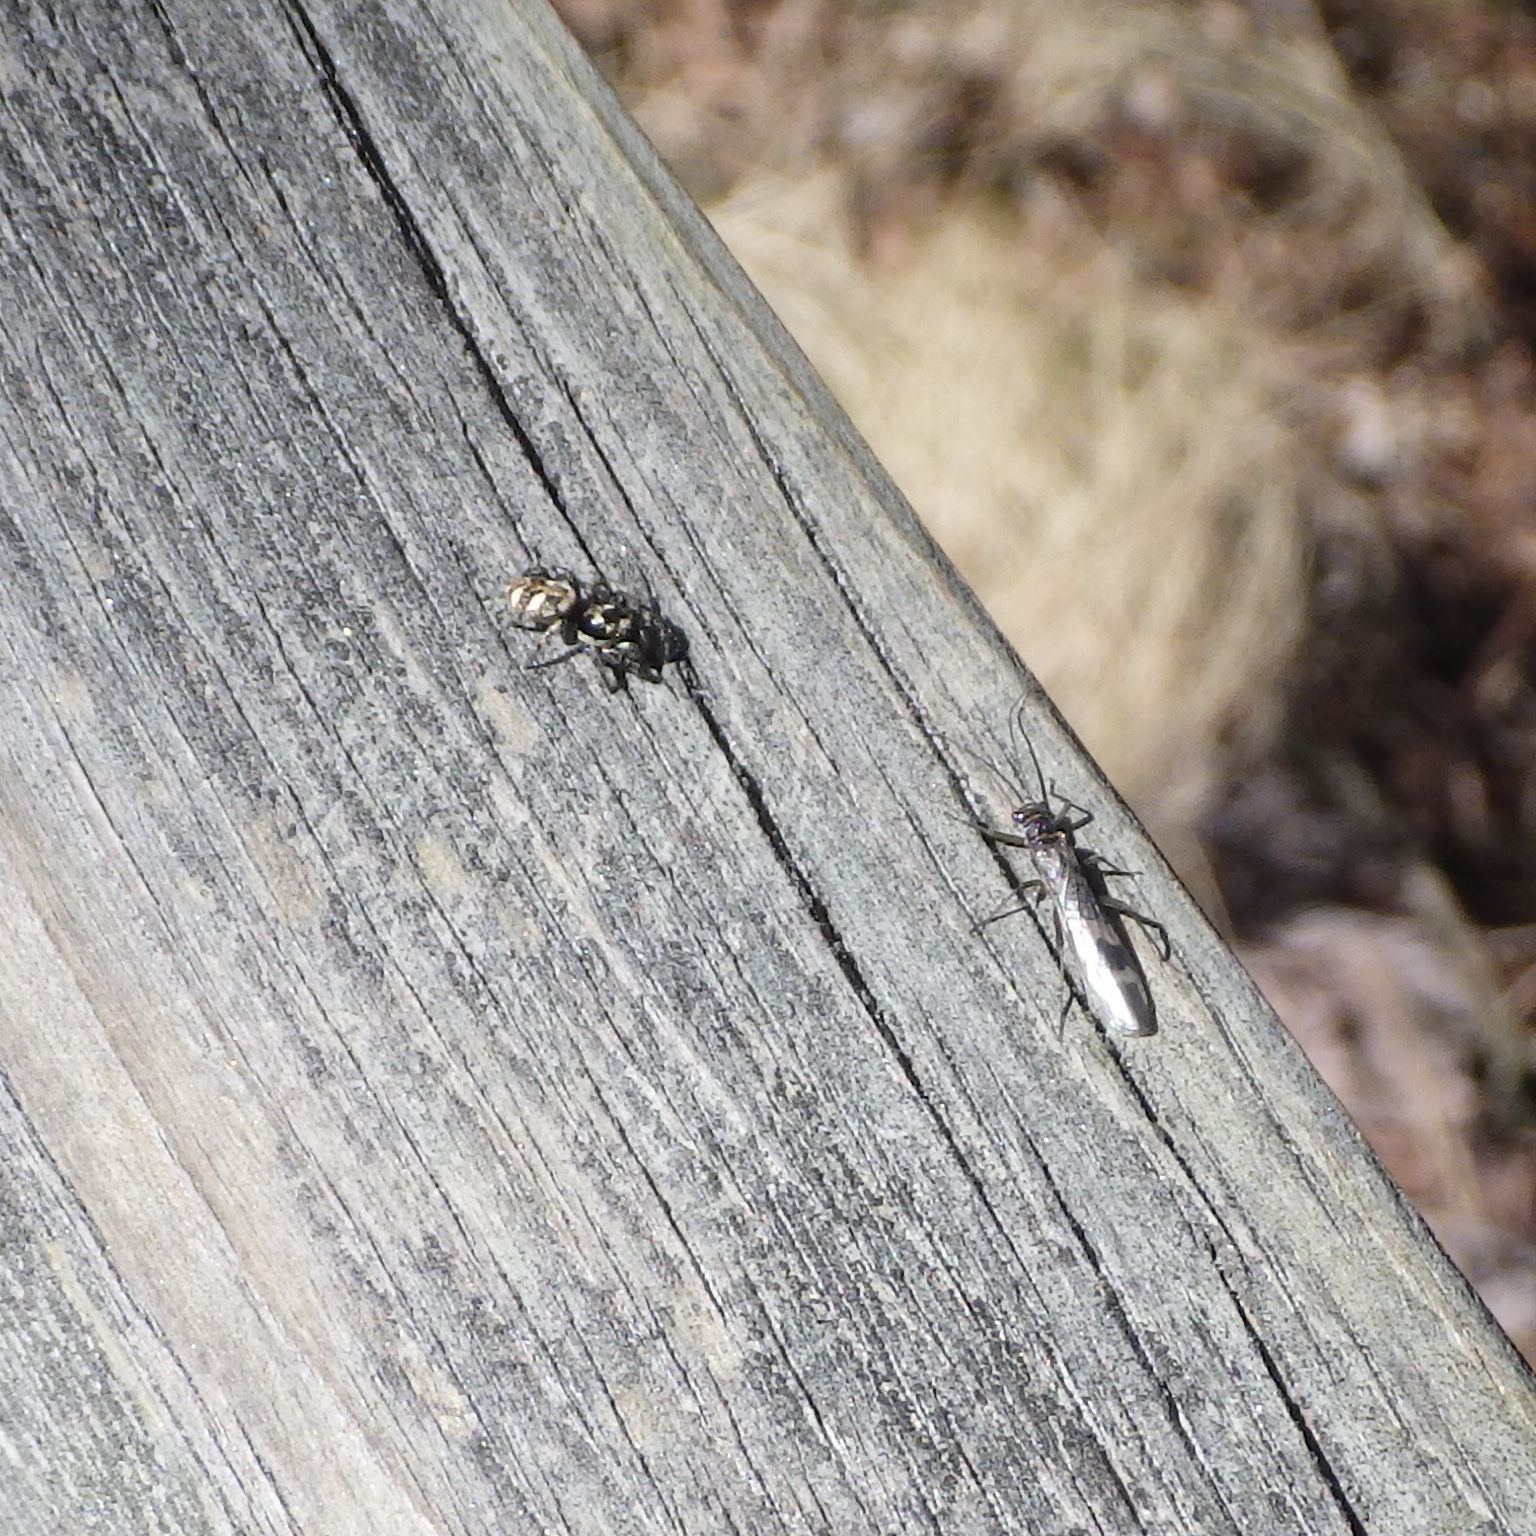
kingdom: Animalia
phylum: Arthropoda
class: Arachnida
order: Araneae
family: Salticidae
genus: Salticus
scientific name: Salticus scenicus
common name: Zebra jumper
